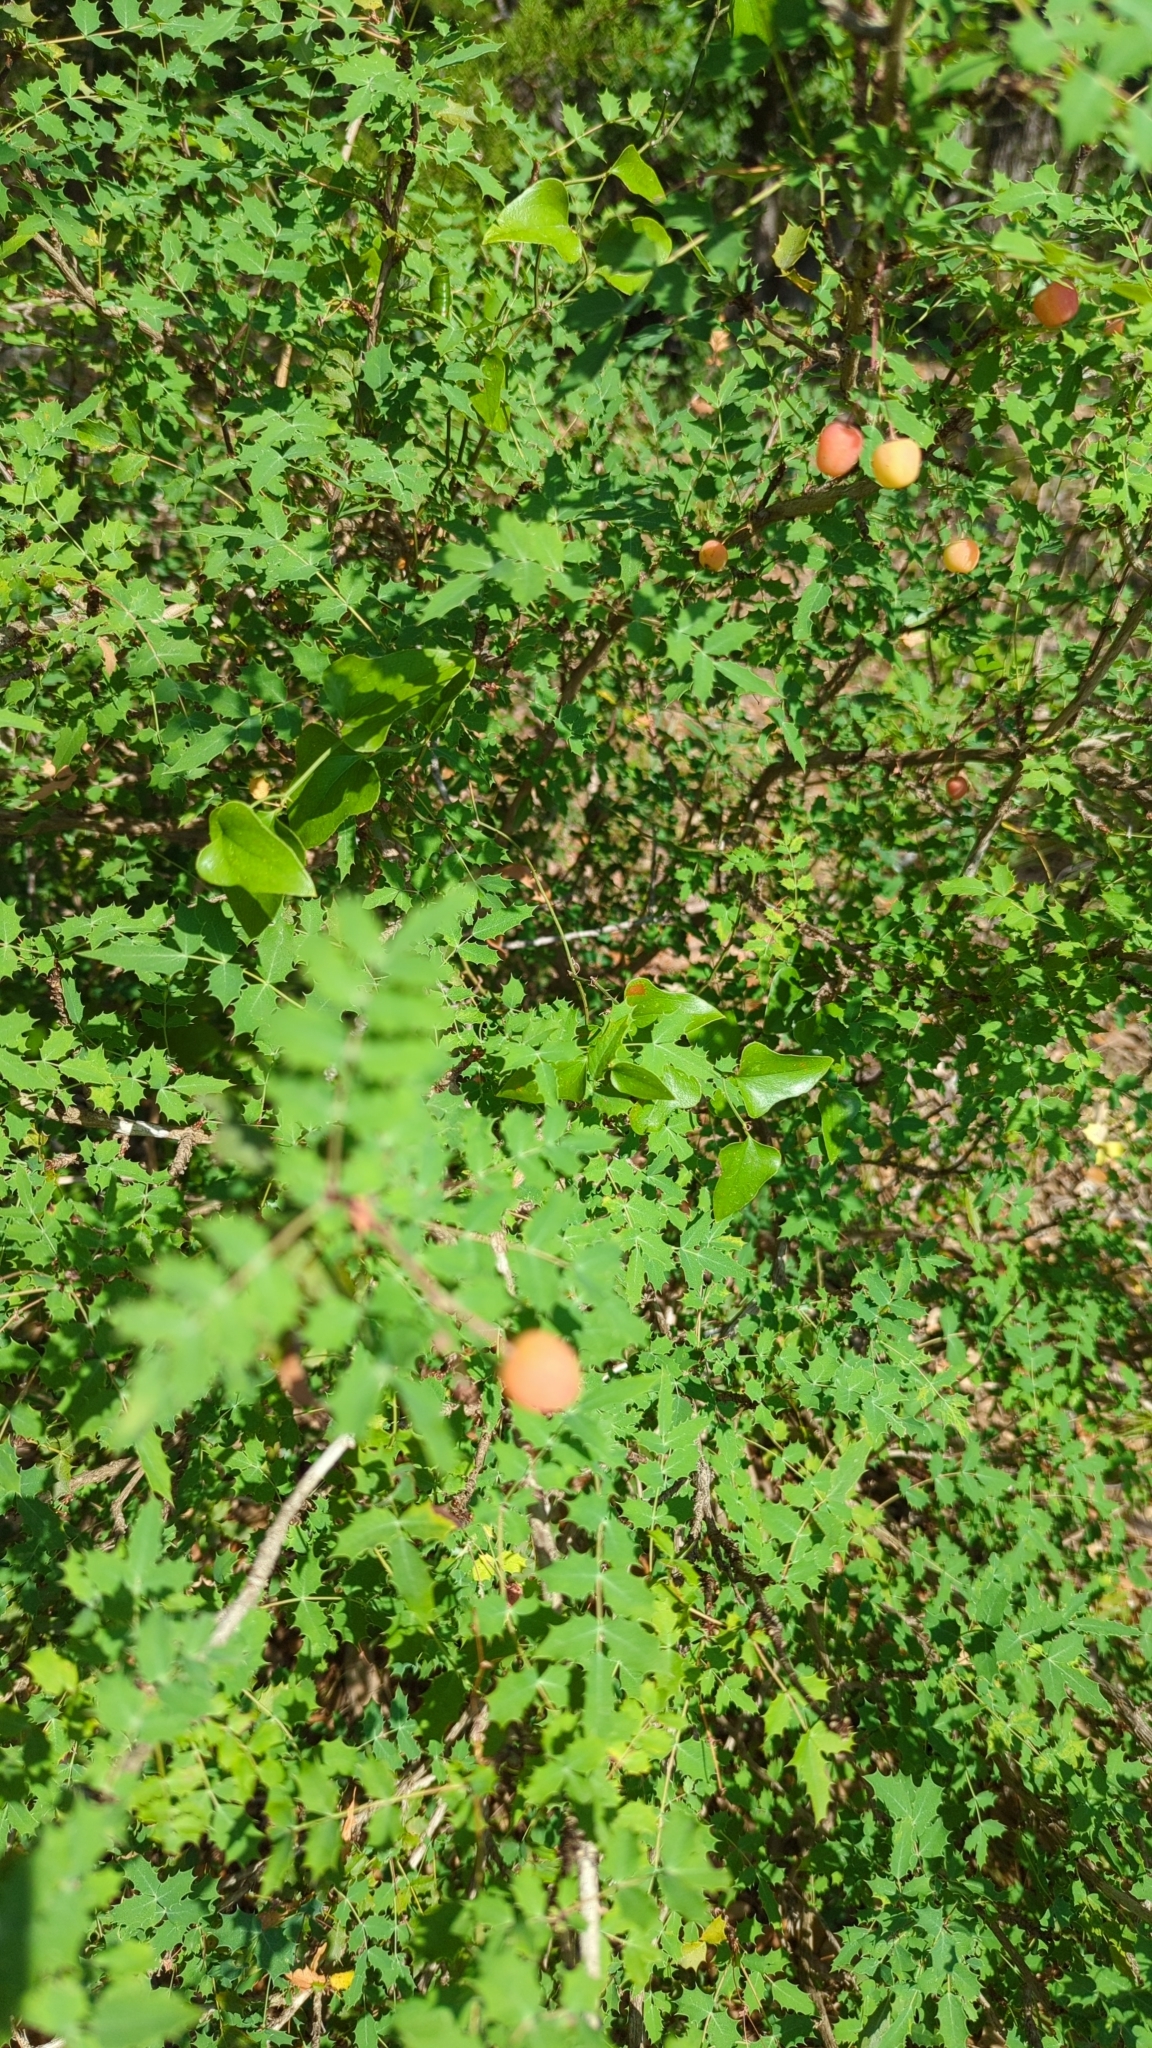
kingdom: Plantae
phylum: Tracheophyta
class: Magnoliopsida
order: Ranunculales
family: Berberidaceae
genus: Berberis
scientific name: Berberis swaseyi
